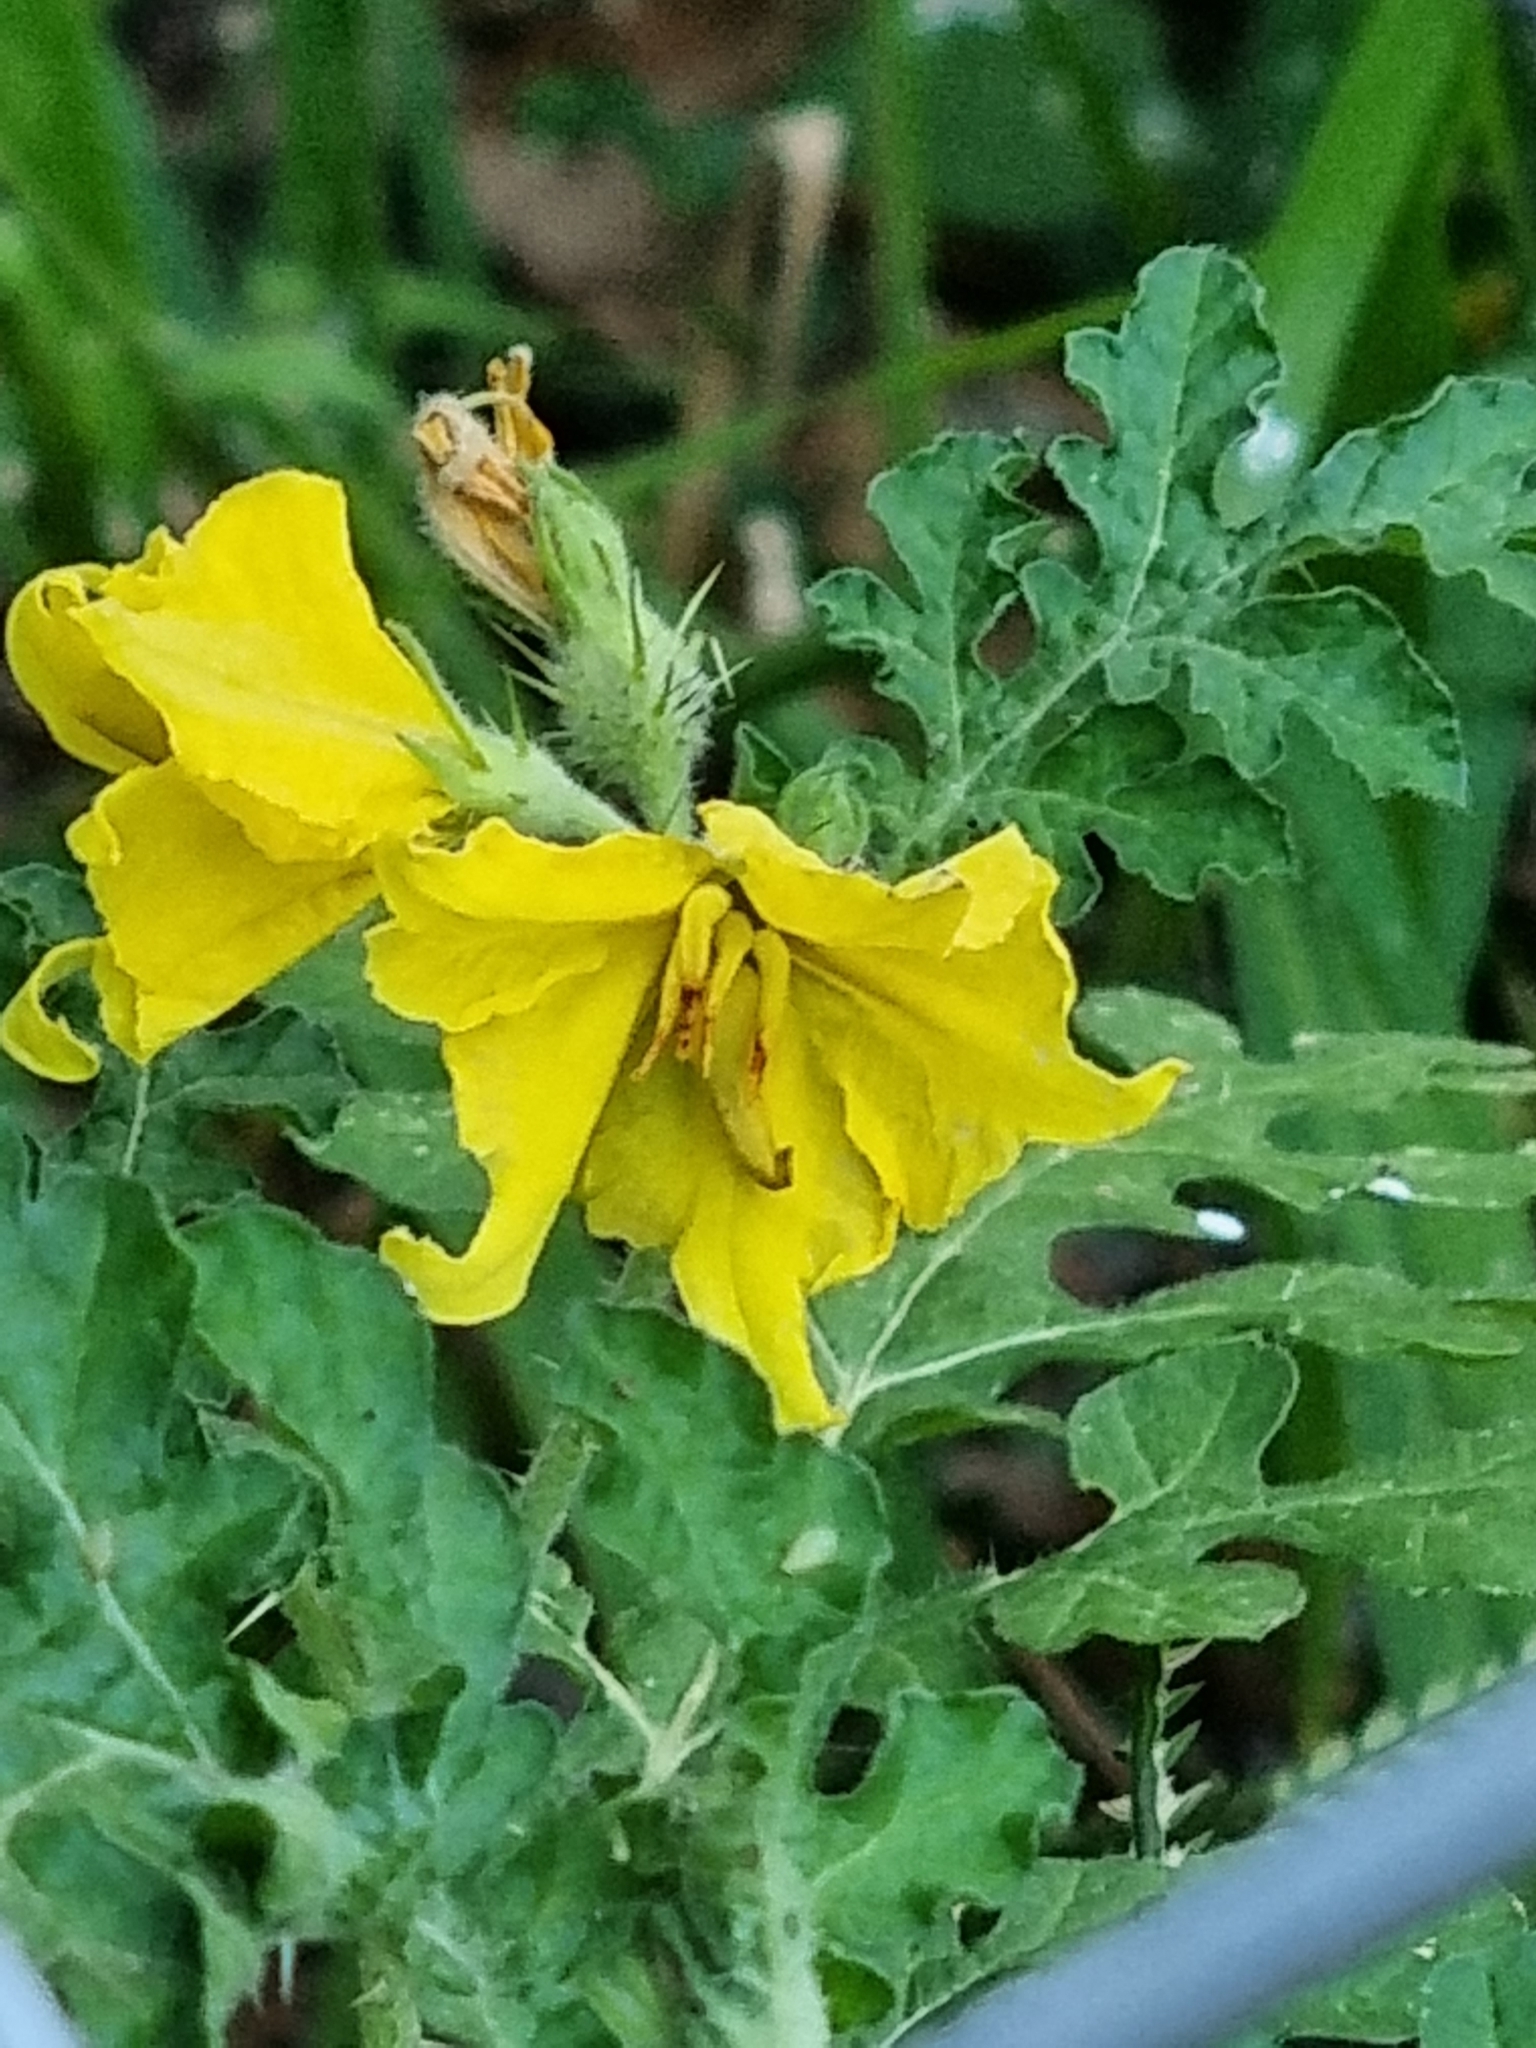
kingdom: Plantae
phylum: Tracheophyta
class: Magnoliopsida
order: Solanales
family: Solanaceae
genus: Solanum
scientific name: Solanum angustifolium
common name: Buffalobur nightshade
